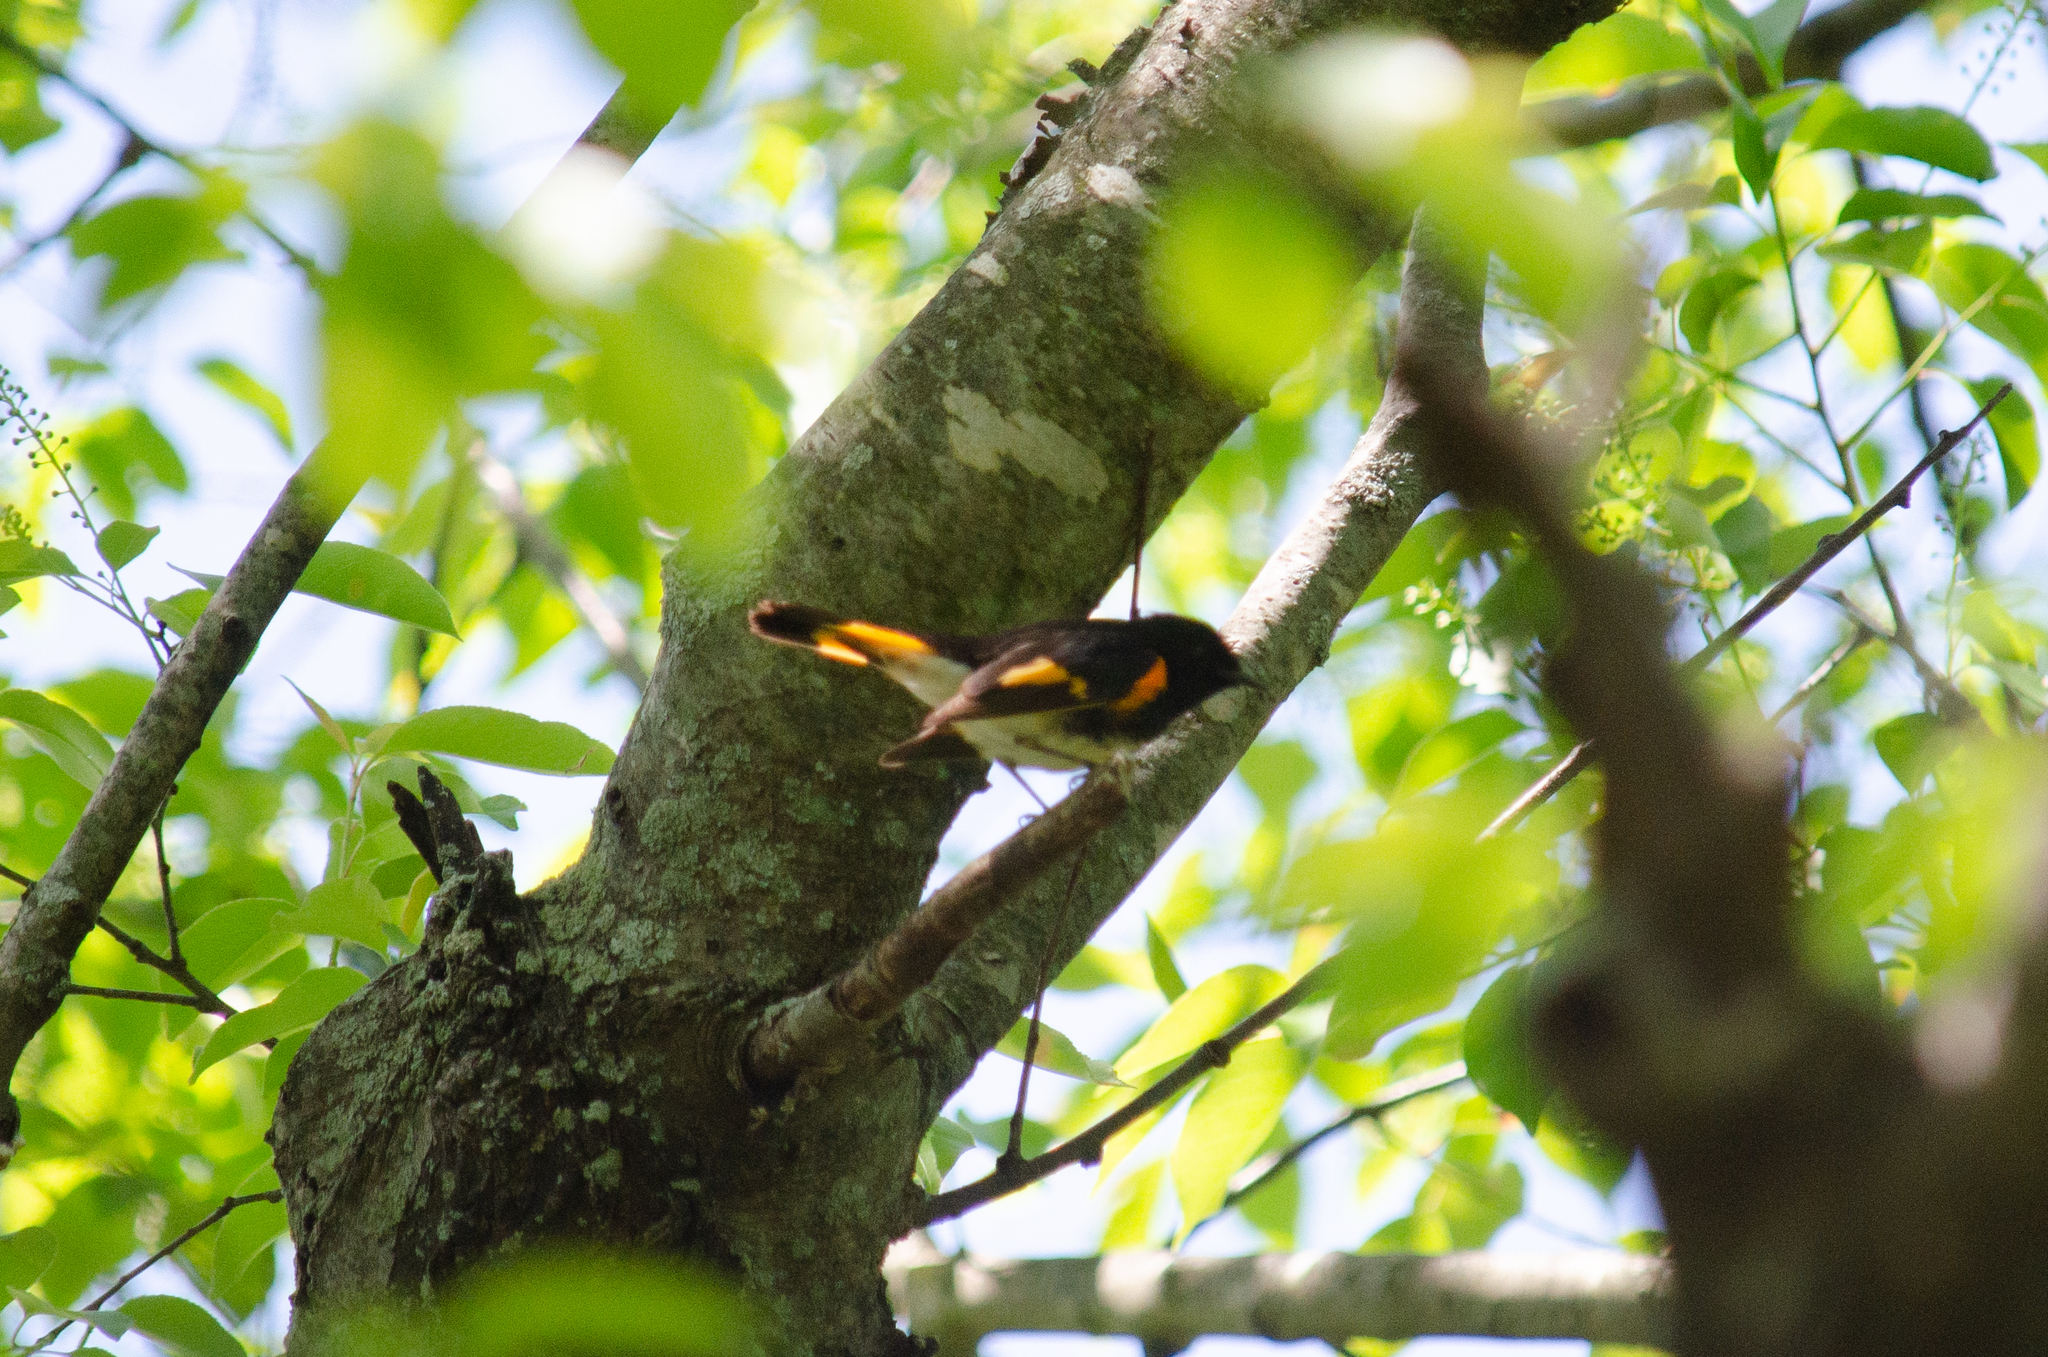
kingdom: Animalia
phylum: Chordata
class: Aves
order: Passeriformes
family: Parulidae
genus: Setophaga
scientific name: Setophaga ruticilla
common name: American redstart
